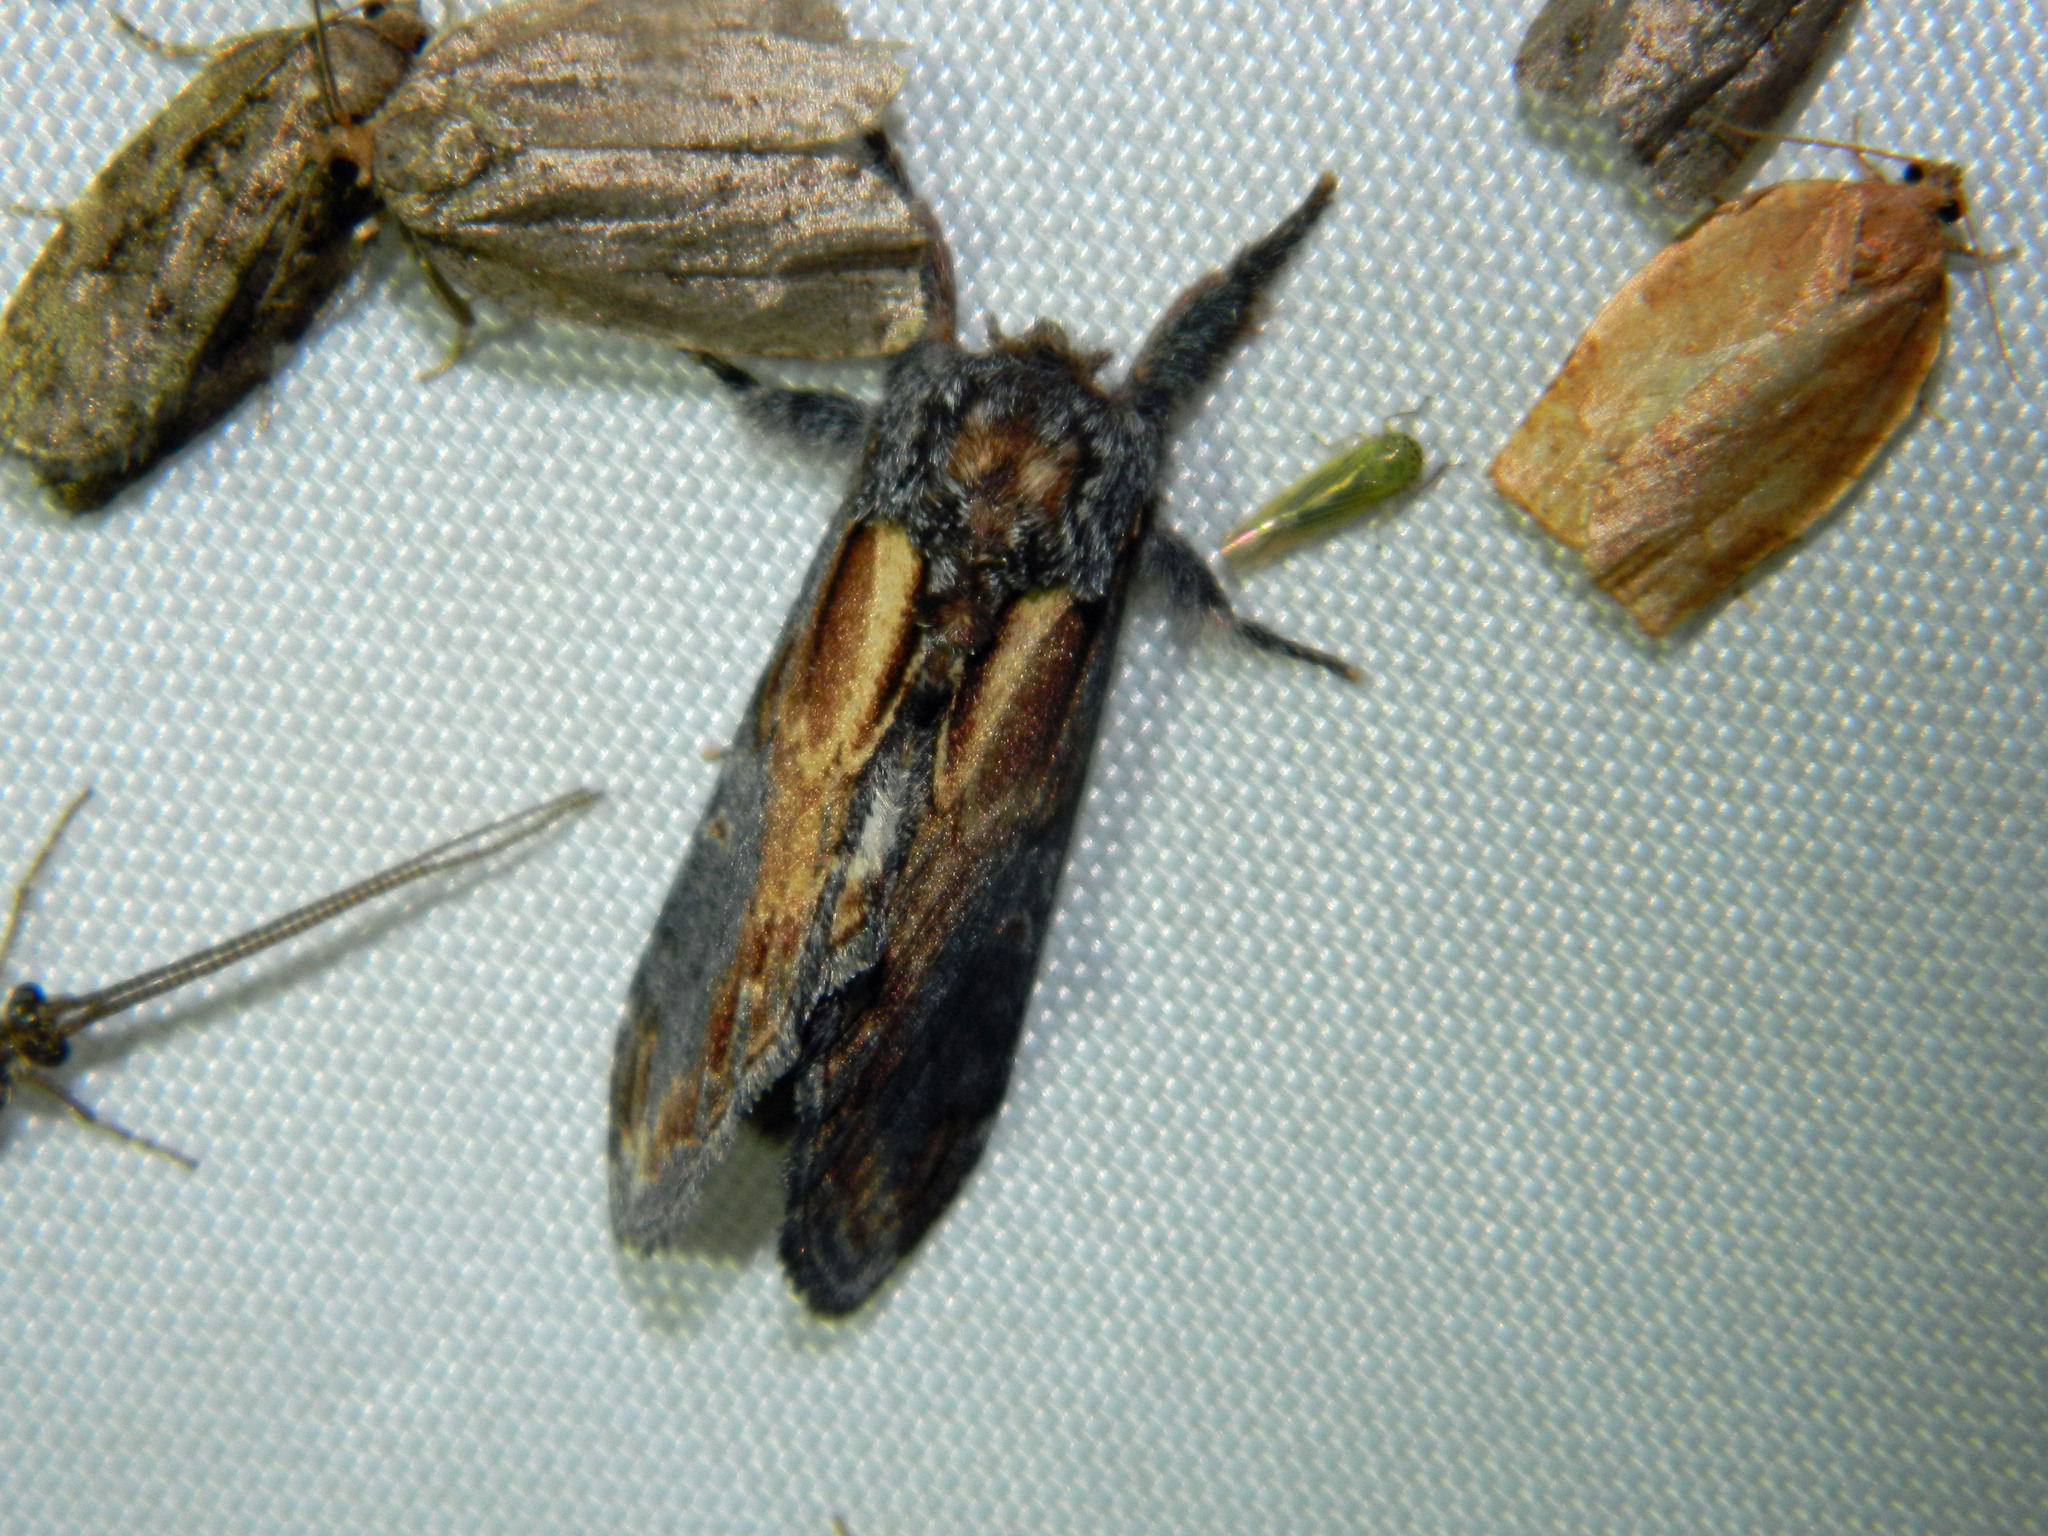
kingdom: Animalia
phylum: Arthropoda
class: Insecta
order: Lepidoptera
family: Notodontidae
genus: Notodonta
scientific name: Notodonta scitipennis
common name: Finned-willow prominent moth
